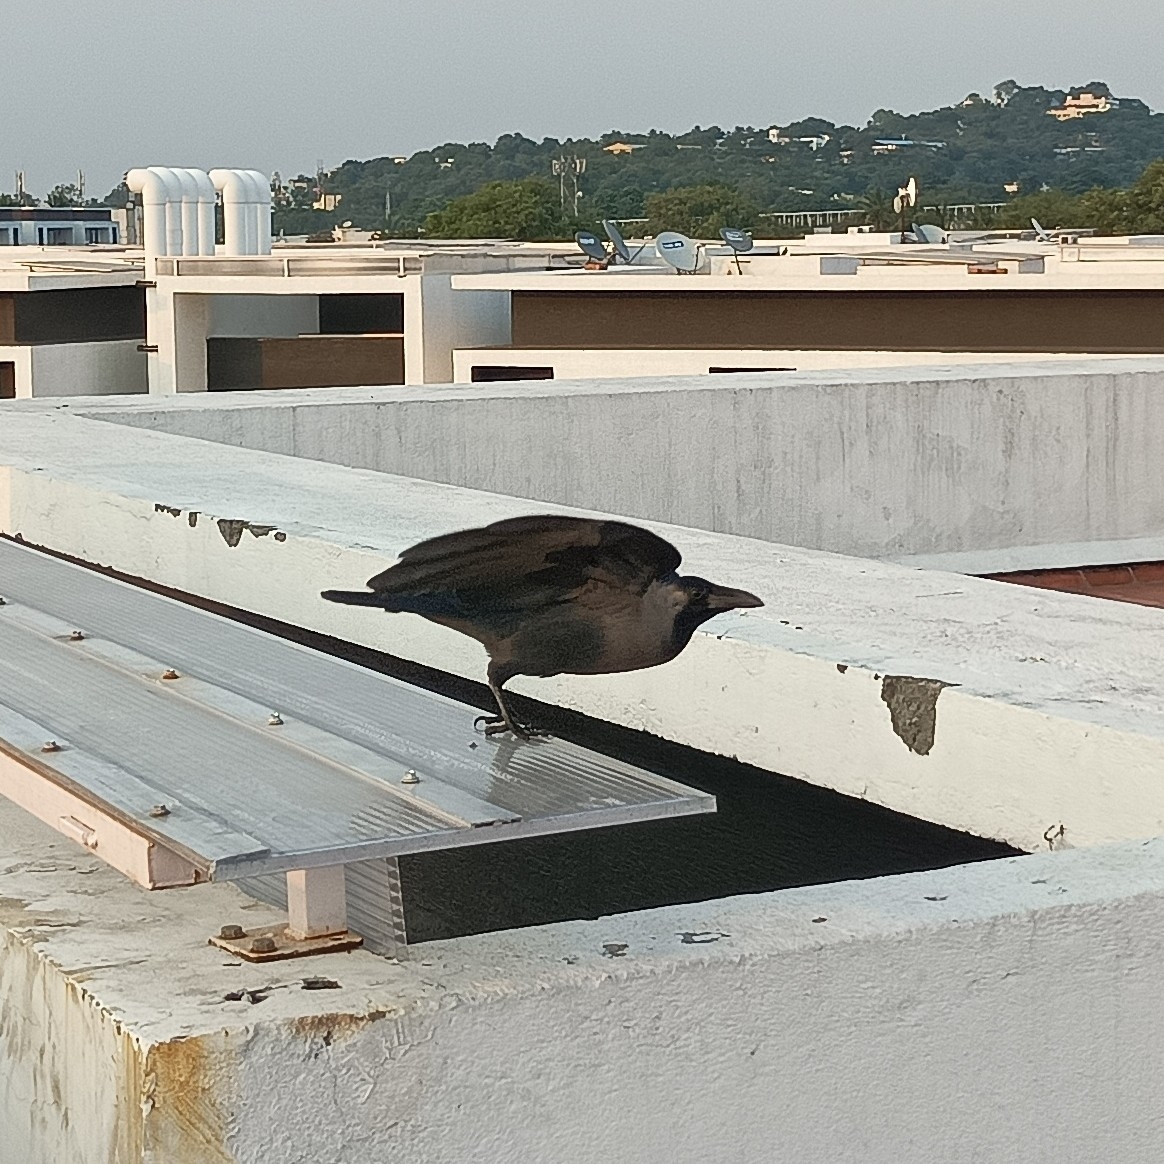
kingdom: Animalia
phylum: Chordata
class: Aves
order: Passeriformes
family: Corvidae
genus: Corvus
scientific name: Corvus splendens
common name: House crow
